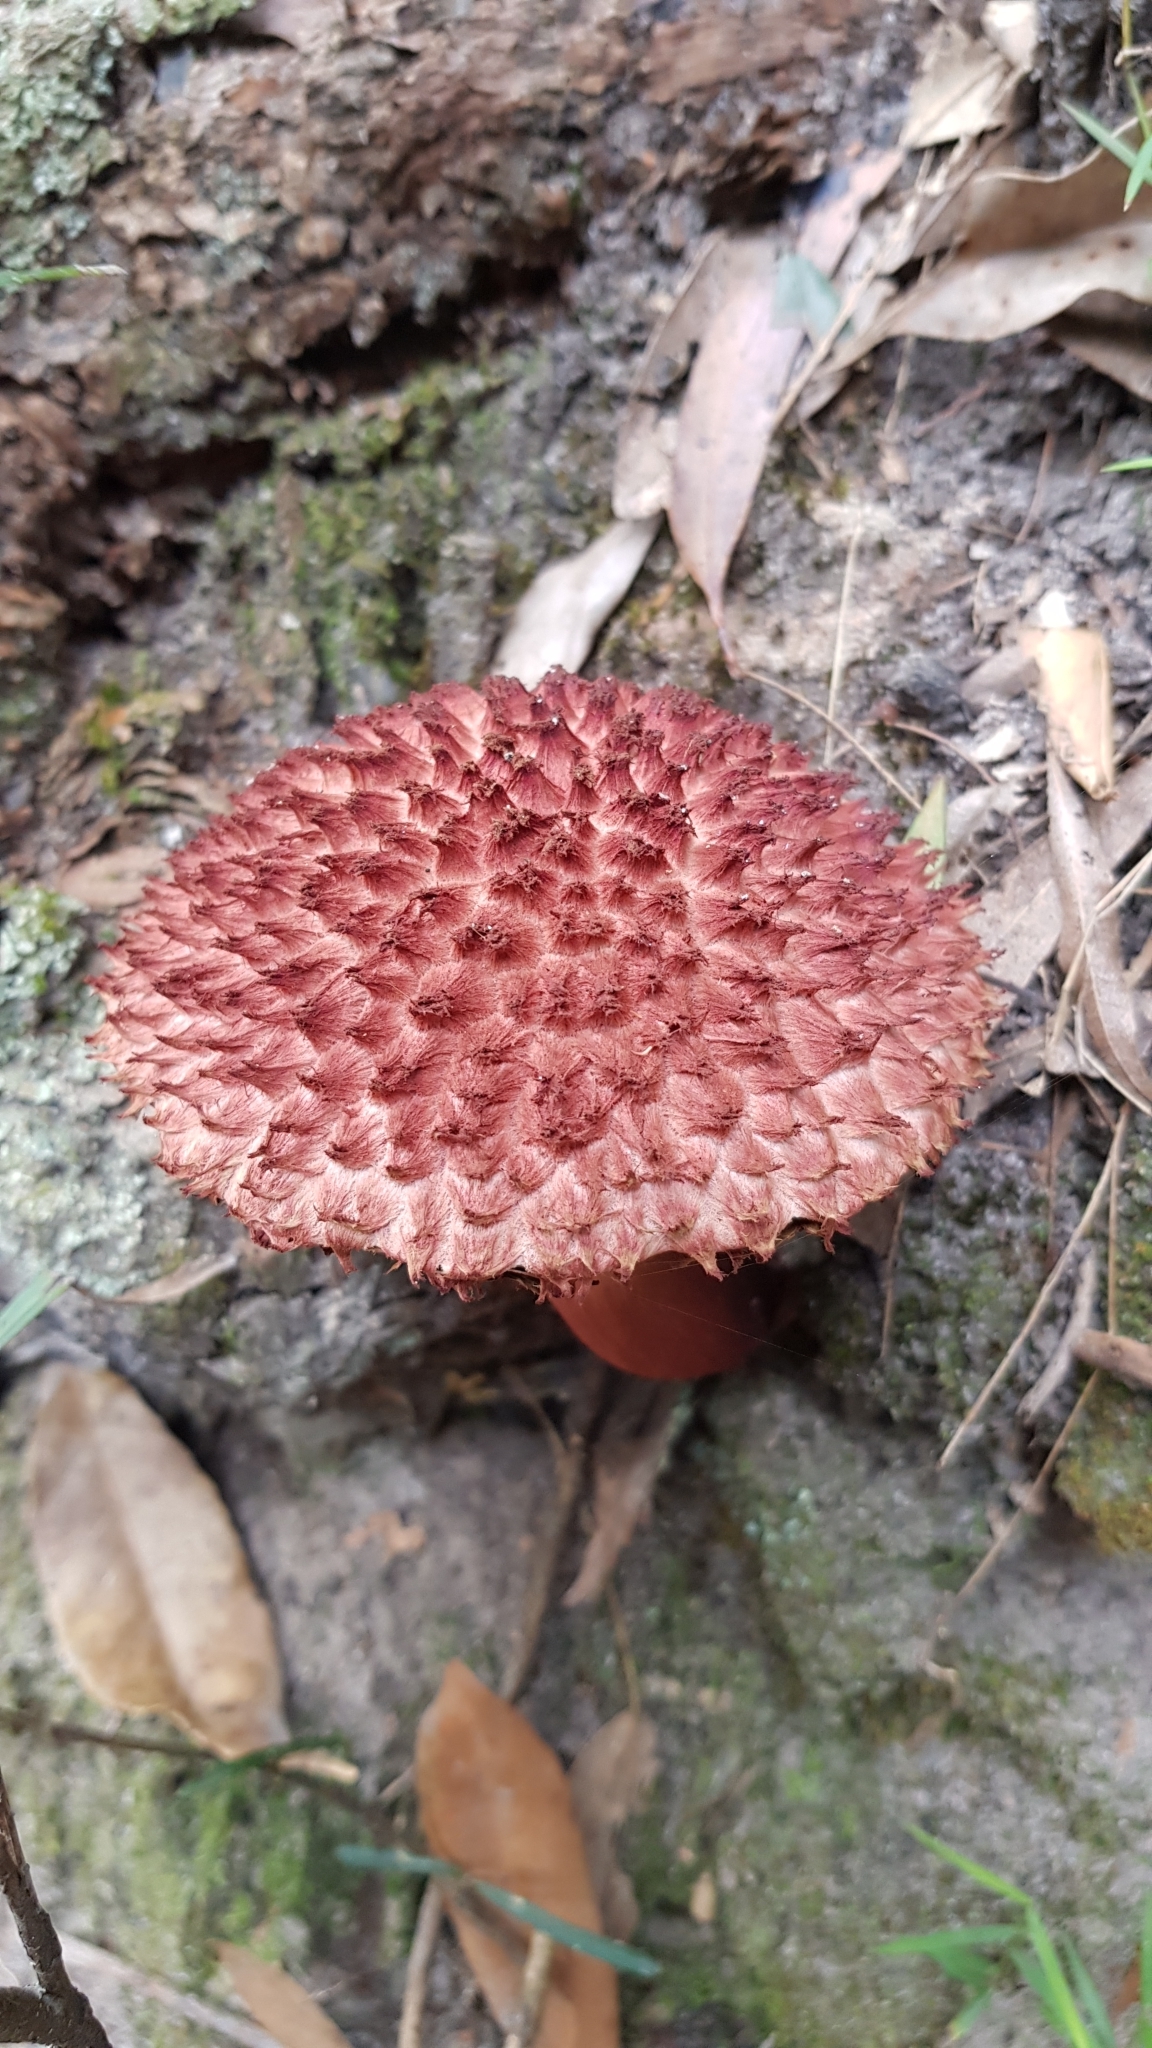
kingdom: Fungi
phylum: Basidiomycota
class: Agaricomycetes
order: Boletales
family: Boletaceae
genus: Boletellus
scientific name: Boletellus emodensis
